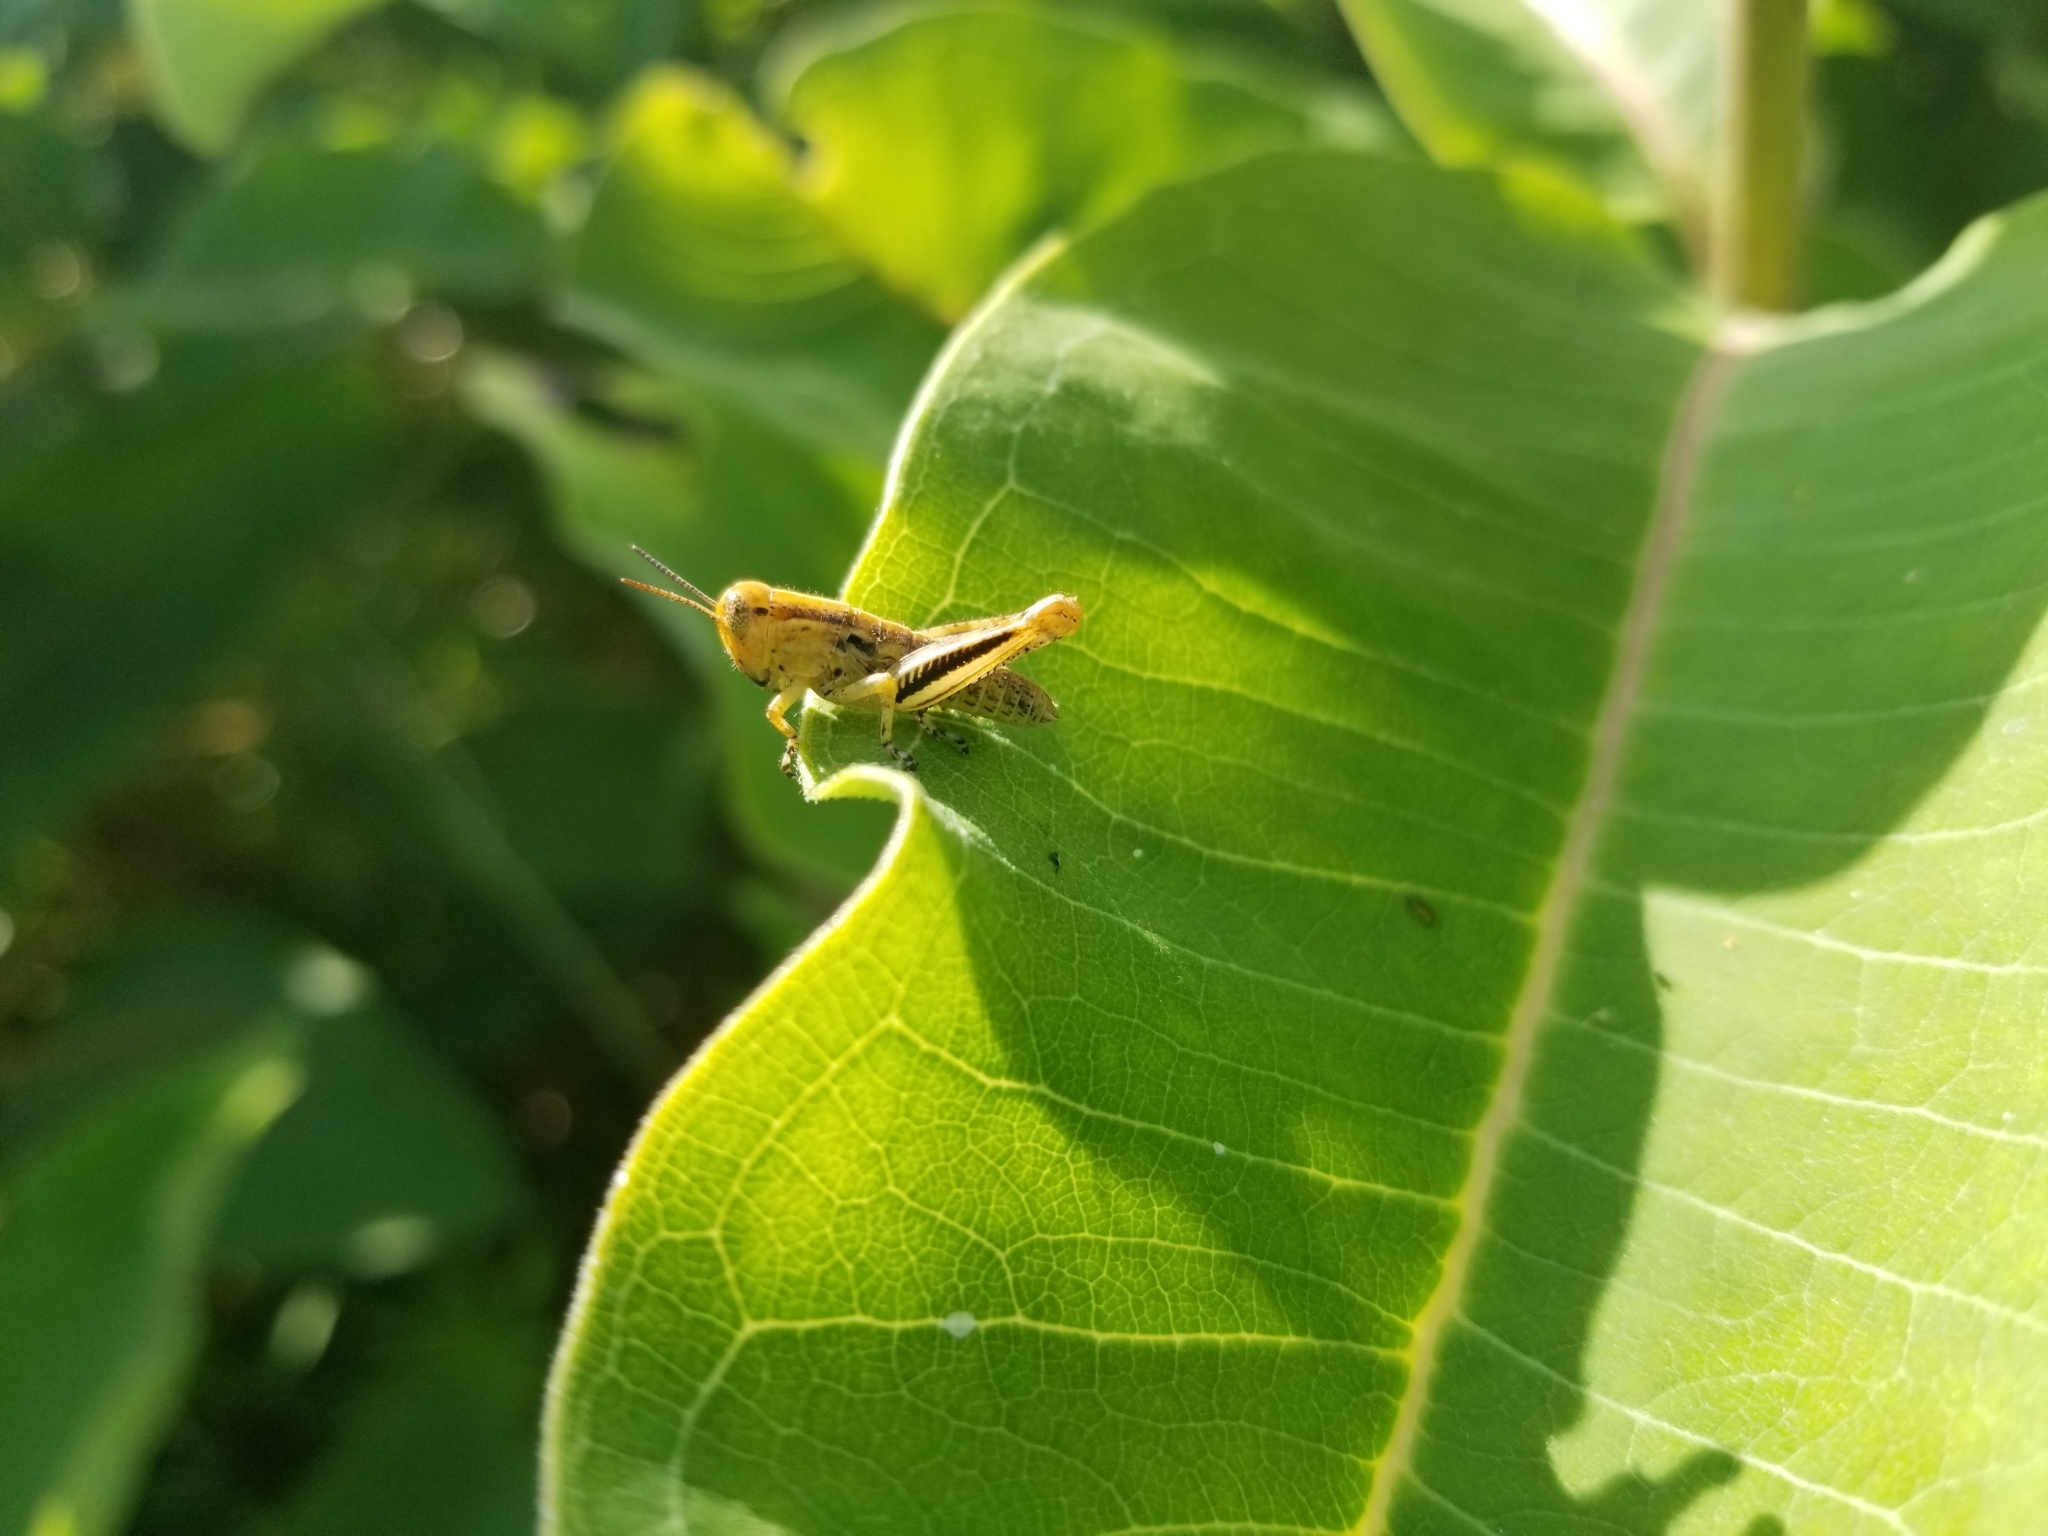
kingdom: Animalia
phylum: Arthropoda
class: Insecta
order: Orthoptera
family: Acrididae
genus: Melanoplus
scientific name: Melanoplus
